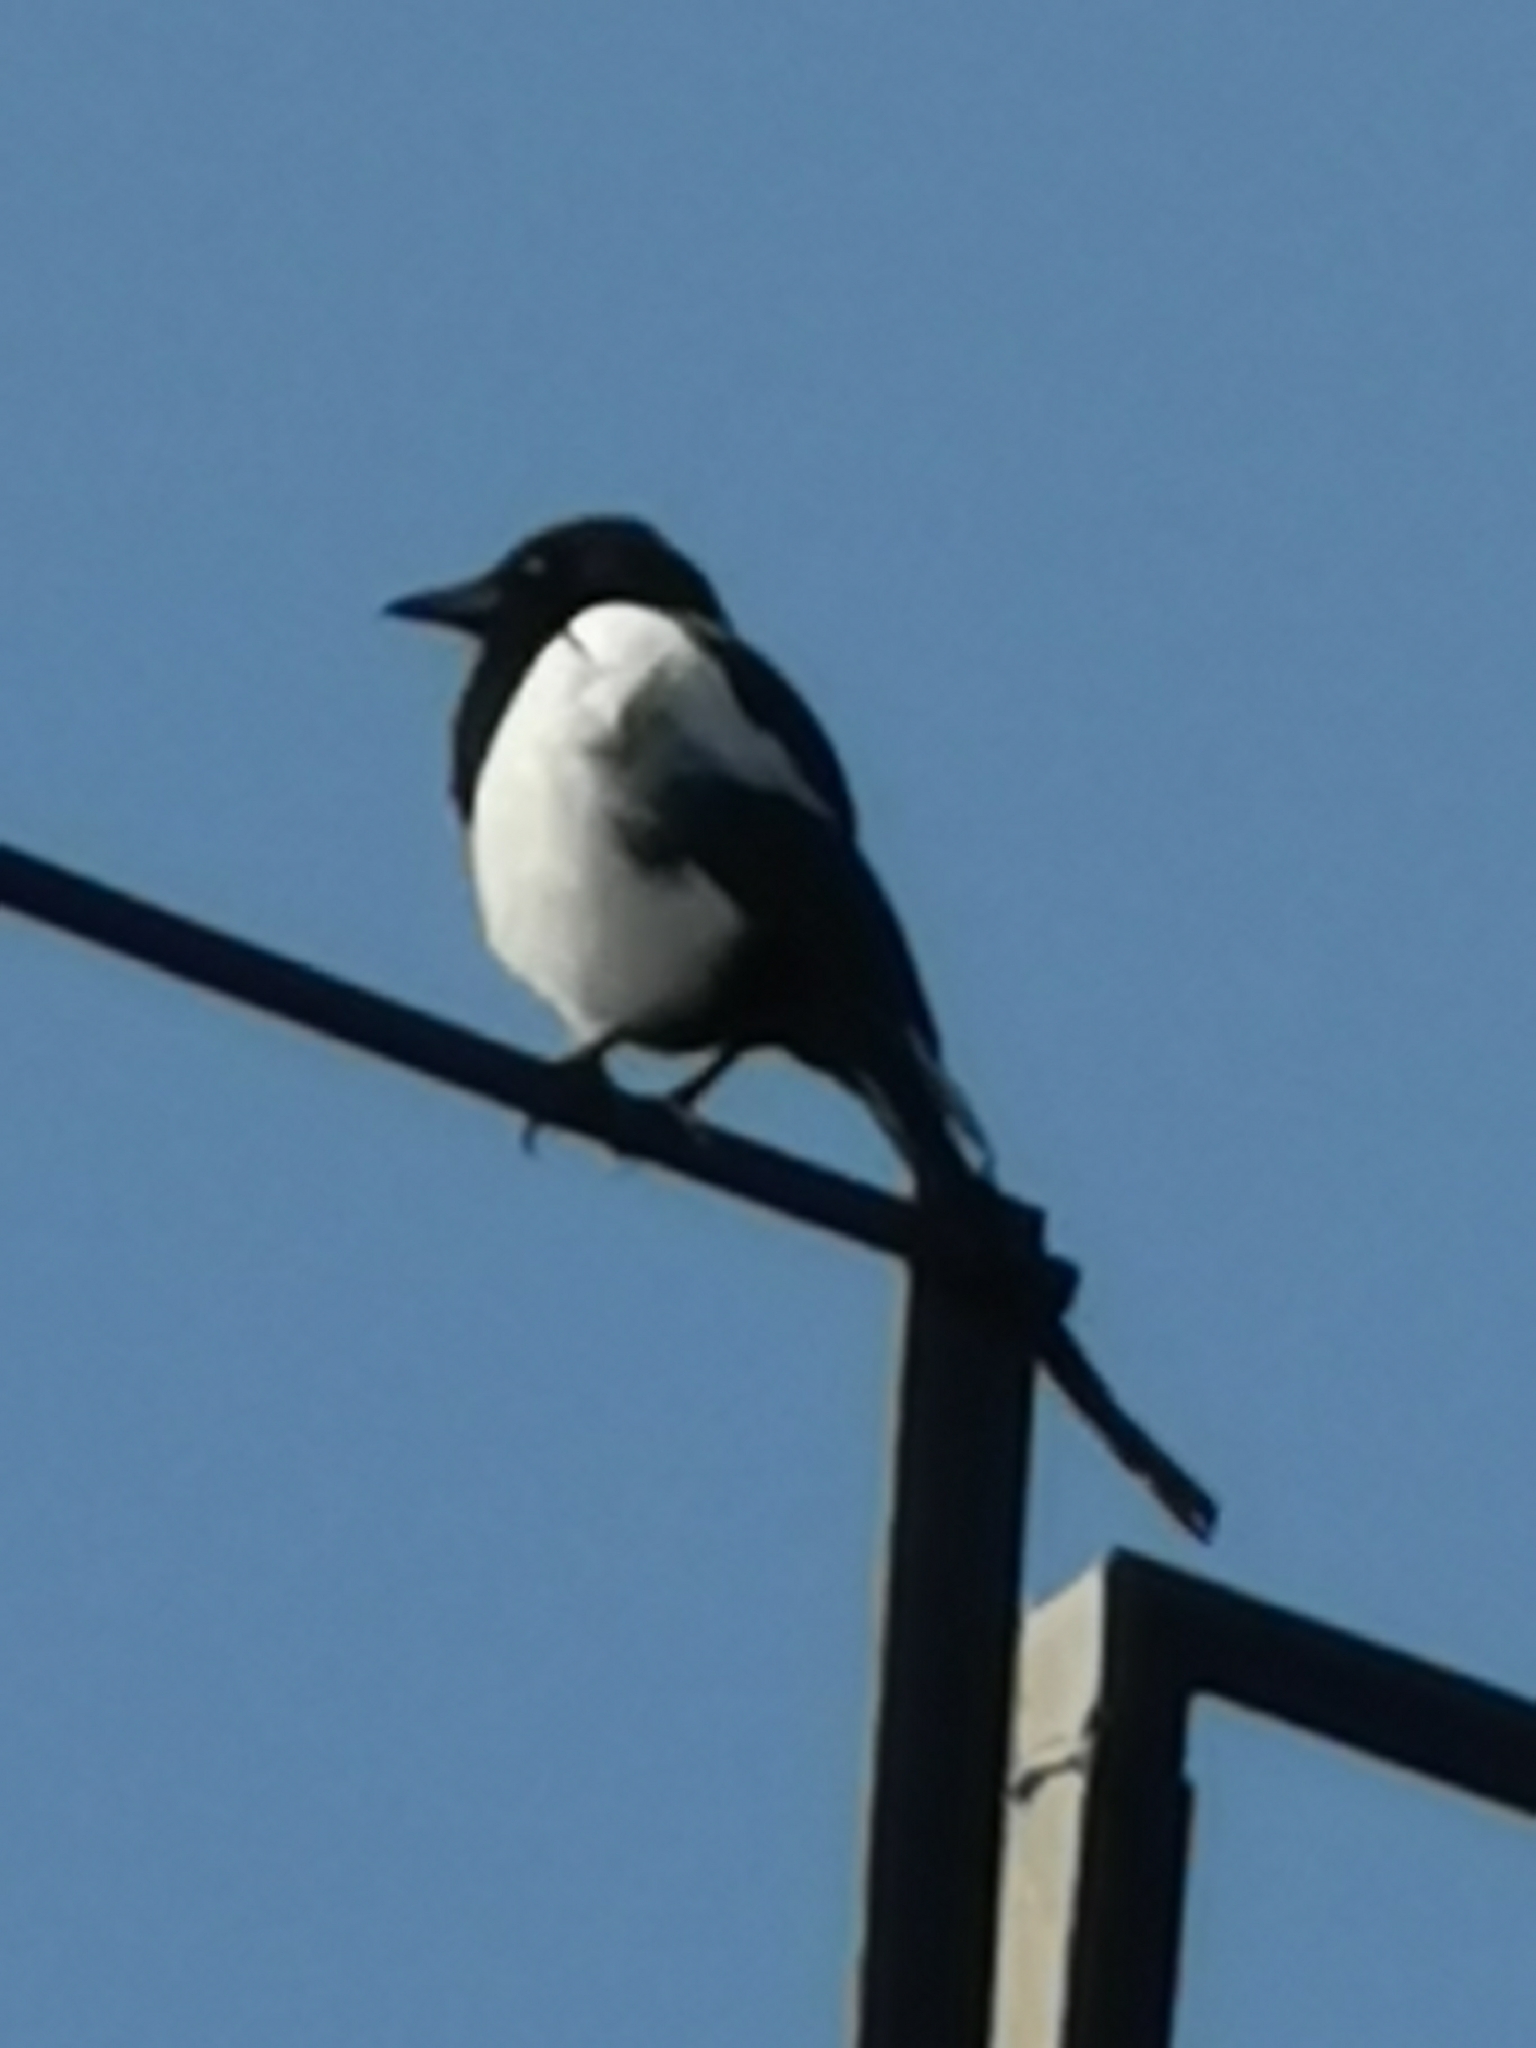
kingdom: Animalia
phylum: Chordata
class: Aves
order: Passeriformes
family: Corvidae
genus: Pica
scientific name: Pica pica
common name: Eurasian magpie
